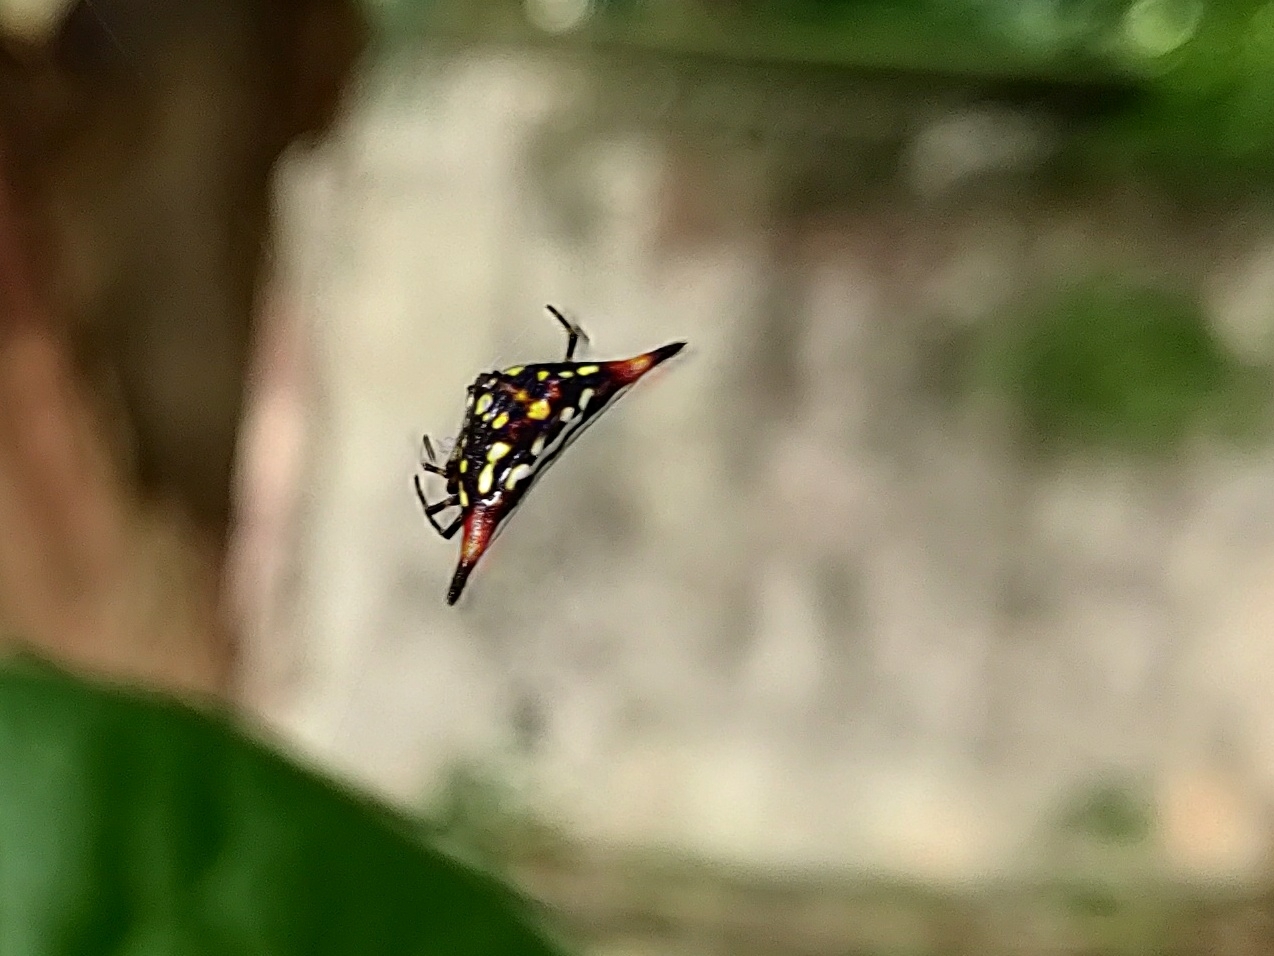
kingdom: Animalia
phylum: Arthropoda
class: Arachnida
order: Araneae
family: Araneidae
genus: Gasteracantha
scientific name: Gasteracantha geminata
